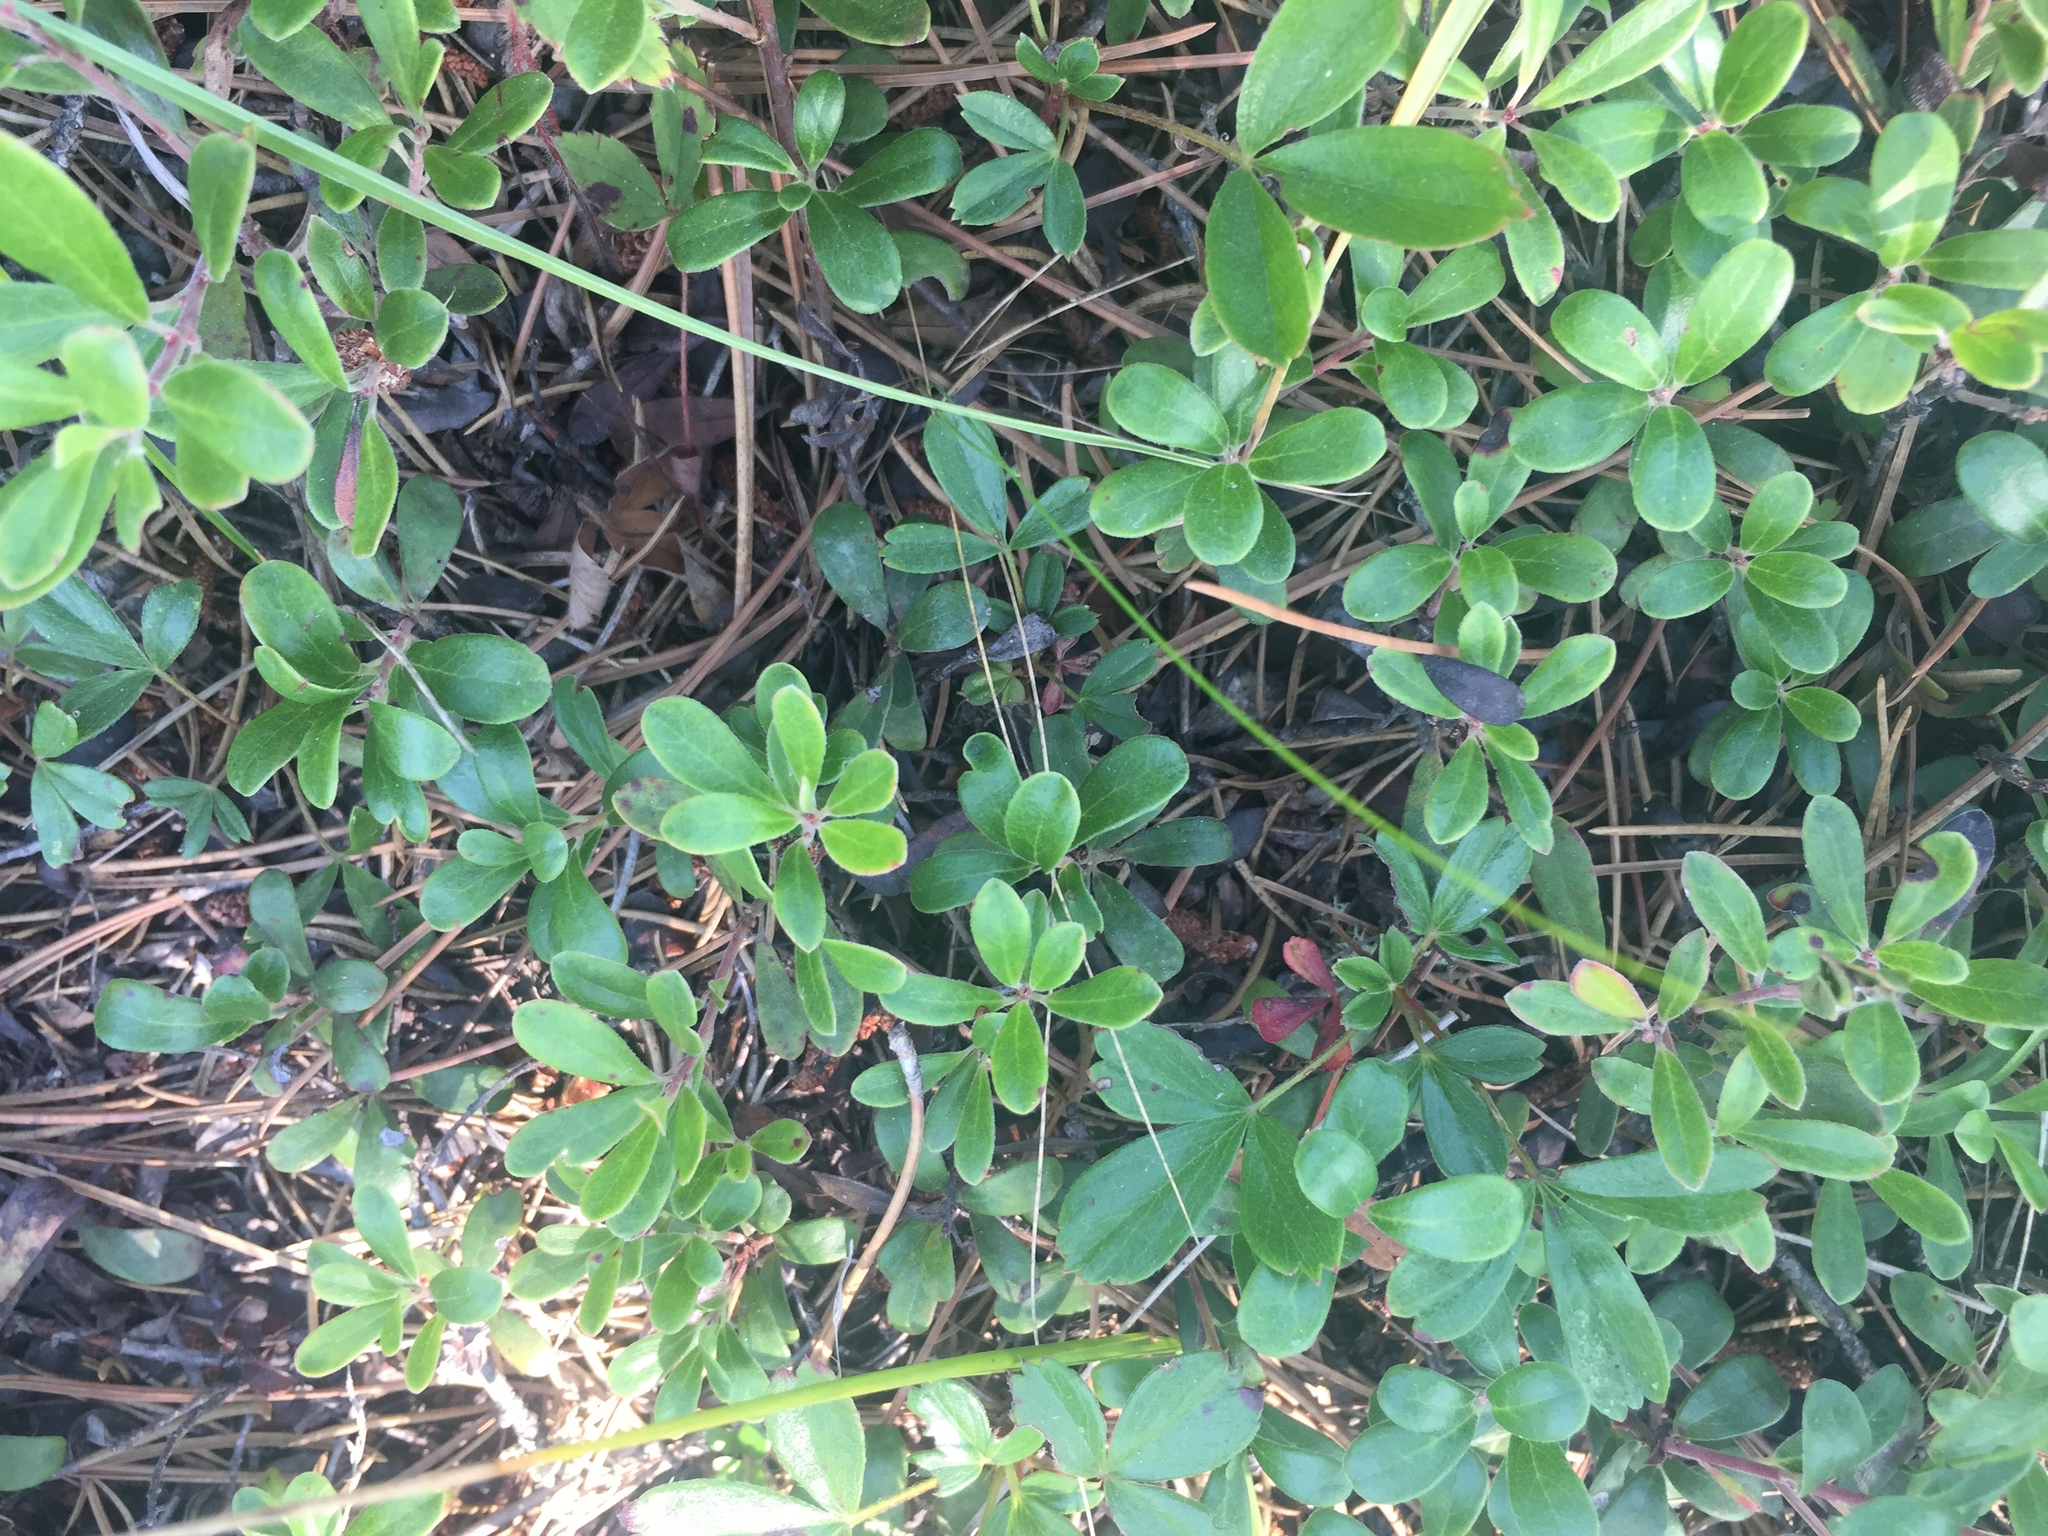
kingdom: Plantae
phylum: Tracheophyta
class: Magnoliopsida
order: Ericales
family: Ericaceae
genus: Arctostaphylos
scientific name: Arctostaphylos uva-ursi
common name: Bearberry
